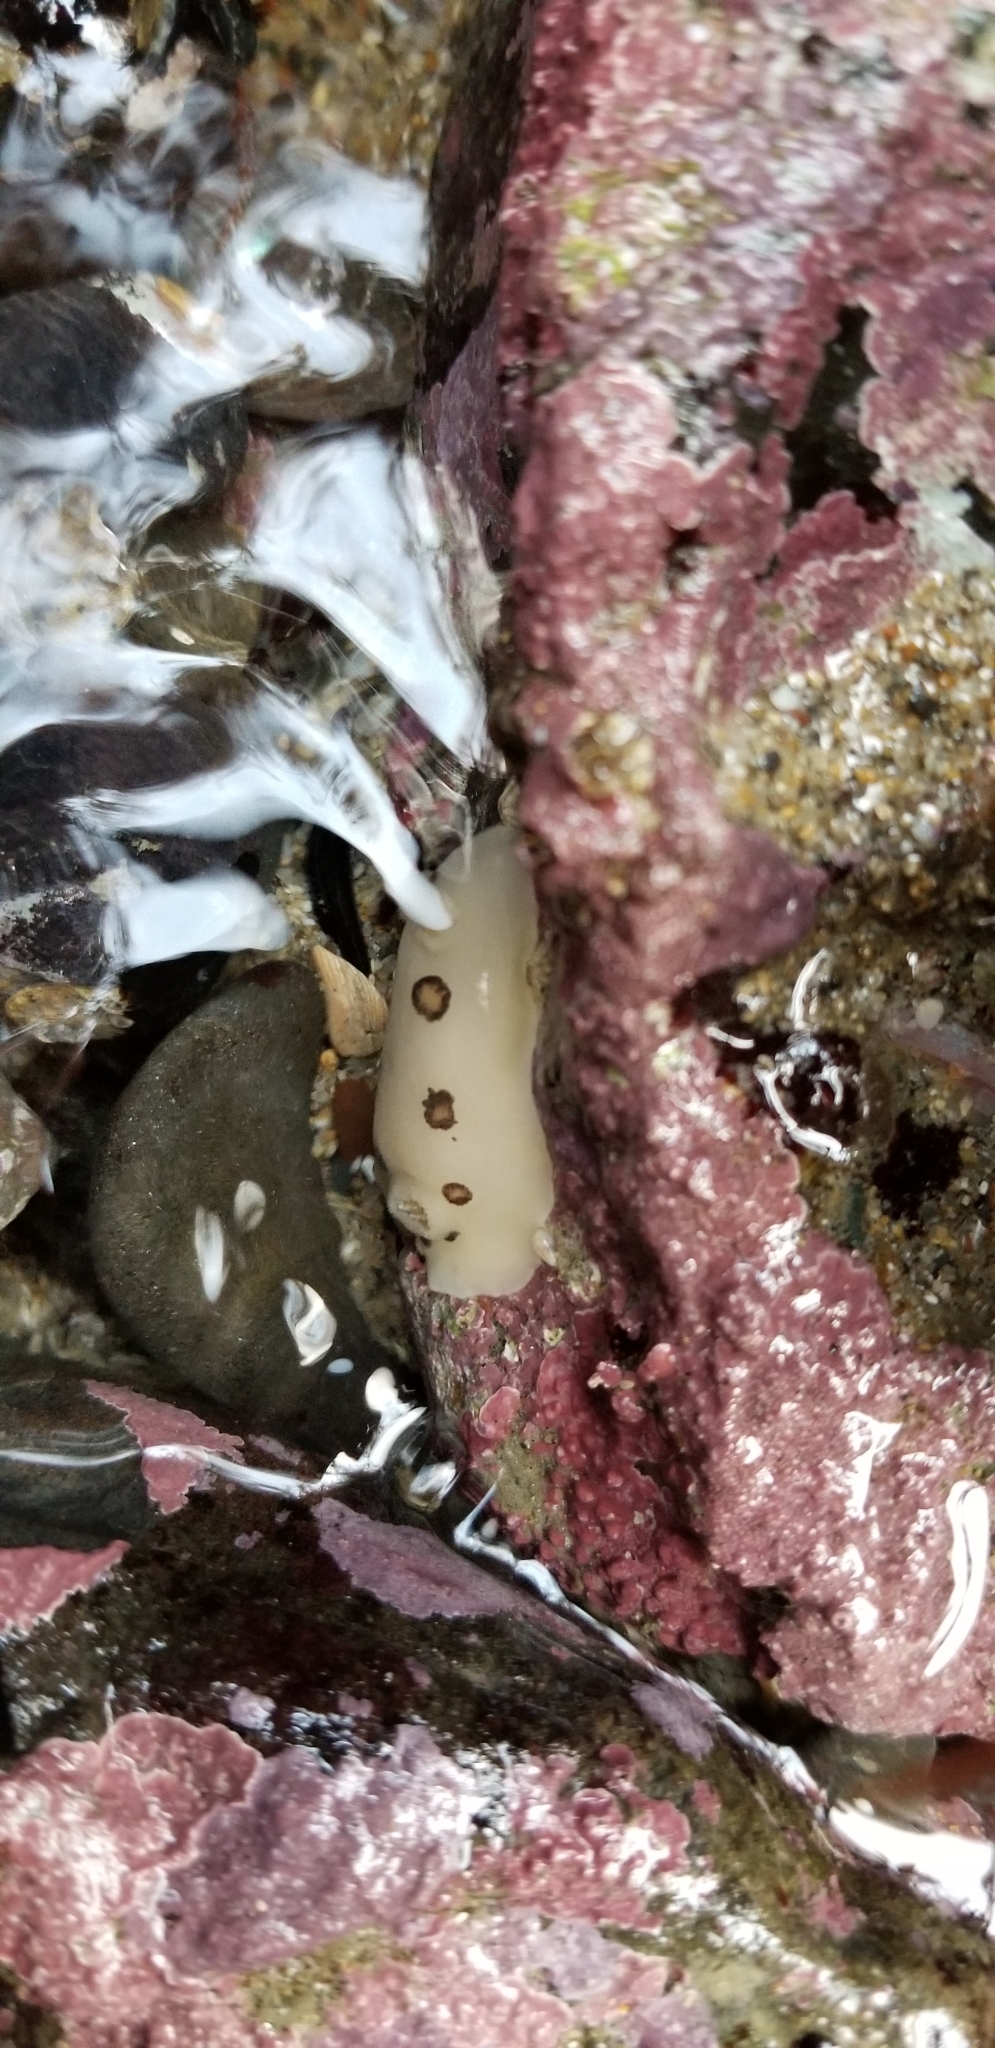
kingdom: Animalia
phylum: Mollusca
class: Gastropoda
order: Nudibranchia
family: Discodorididae
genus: Diaulula
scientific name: Diaulula sandiegensis
